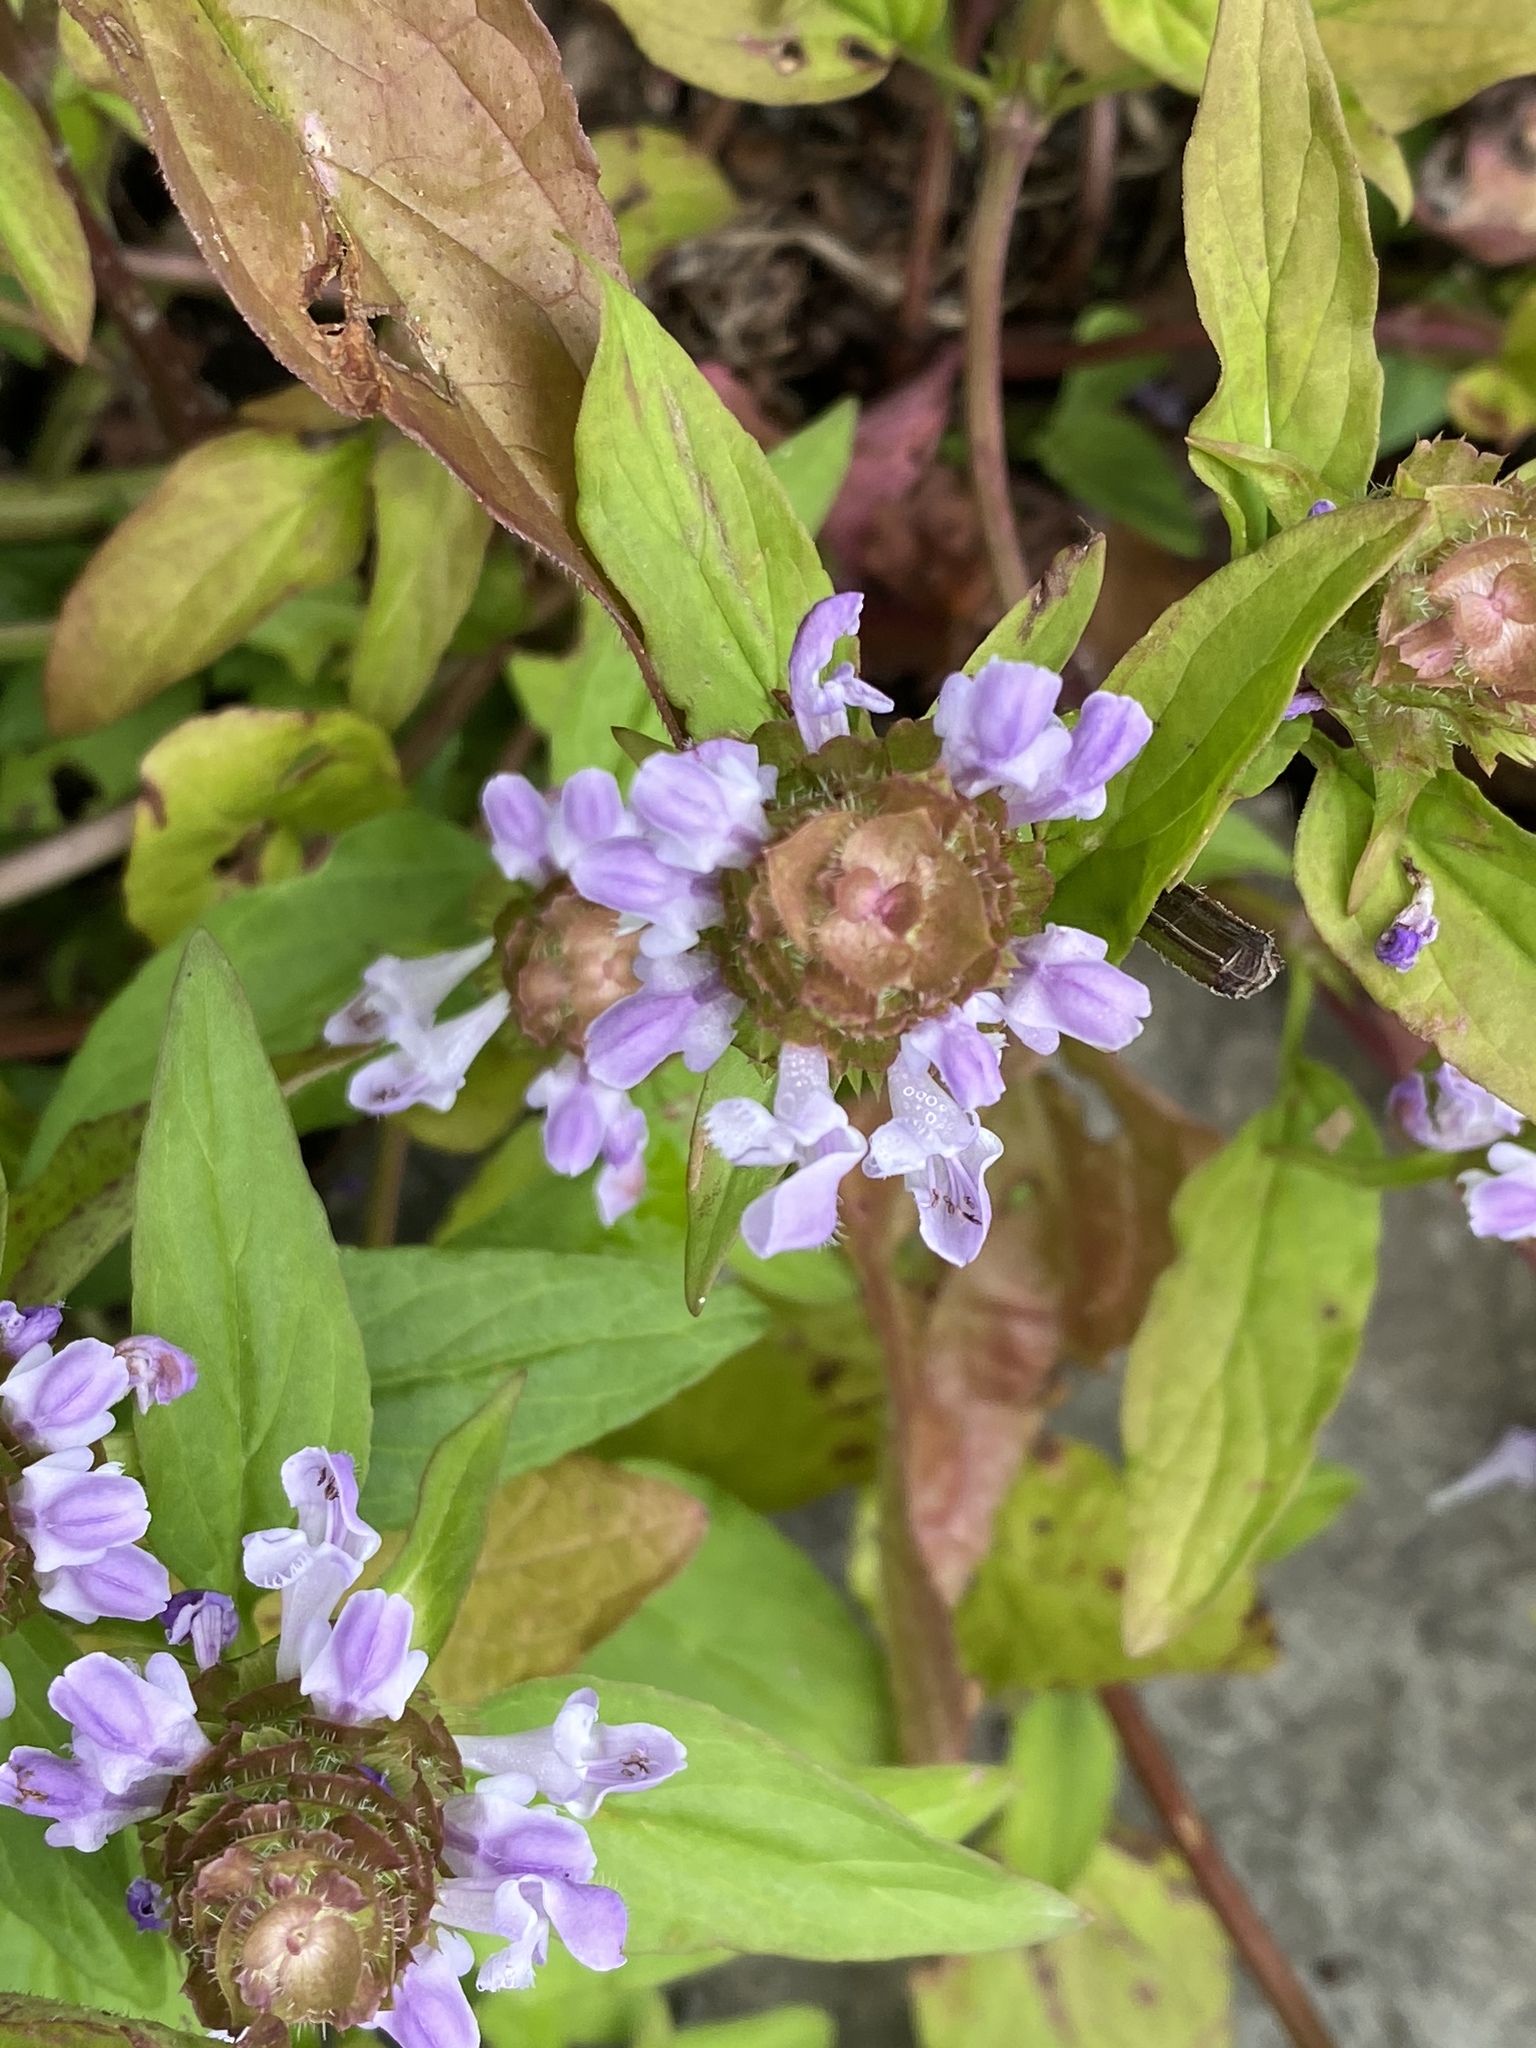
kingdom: Plantae
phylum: Tracheophyta
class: Magnoliopsida
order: Lamiales
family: Lamiaceae
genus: Prunella
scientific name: Prunella vulgaris
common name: Heal-all
